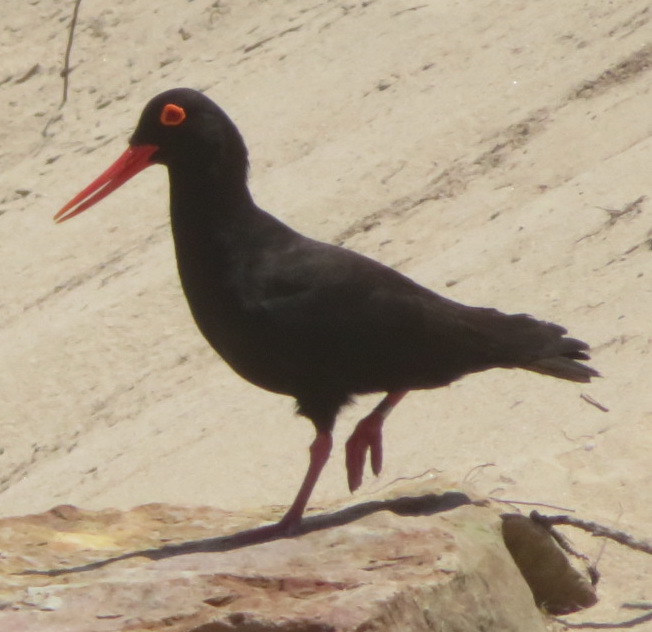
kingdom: Animalia
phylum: Chordata
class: Aves
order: Charadriiformes
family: Haematopodidae
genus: Haematopus
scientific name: Haematopus moquini
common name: African oystercatcher
